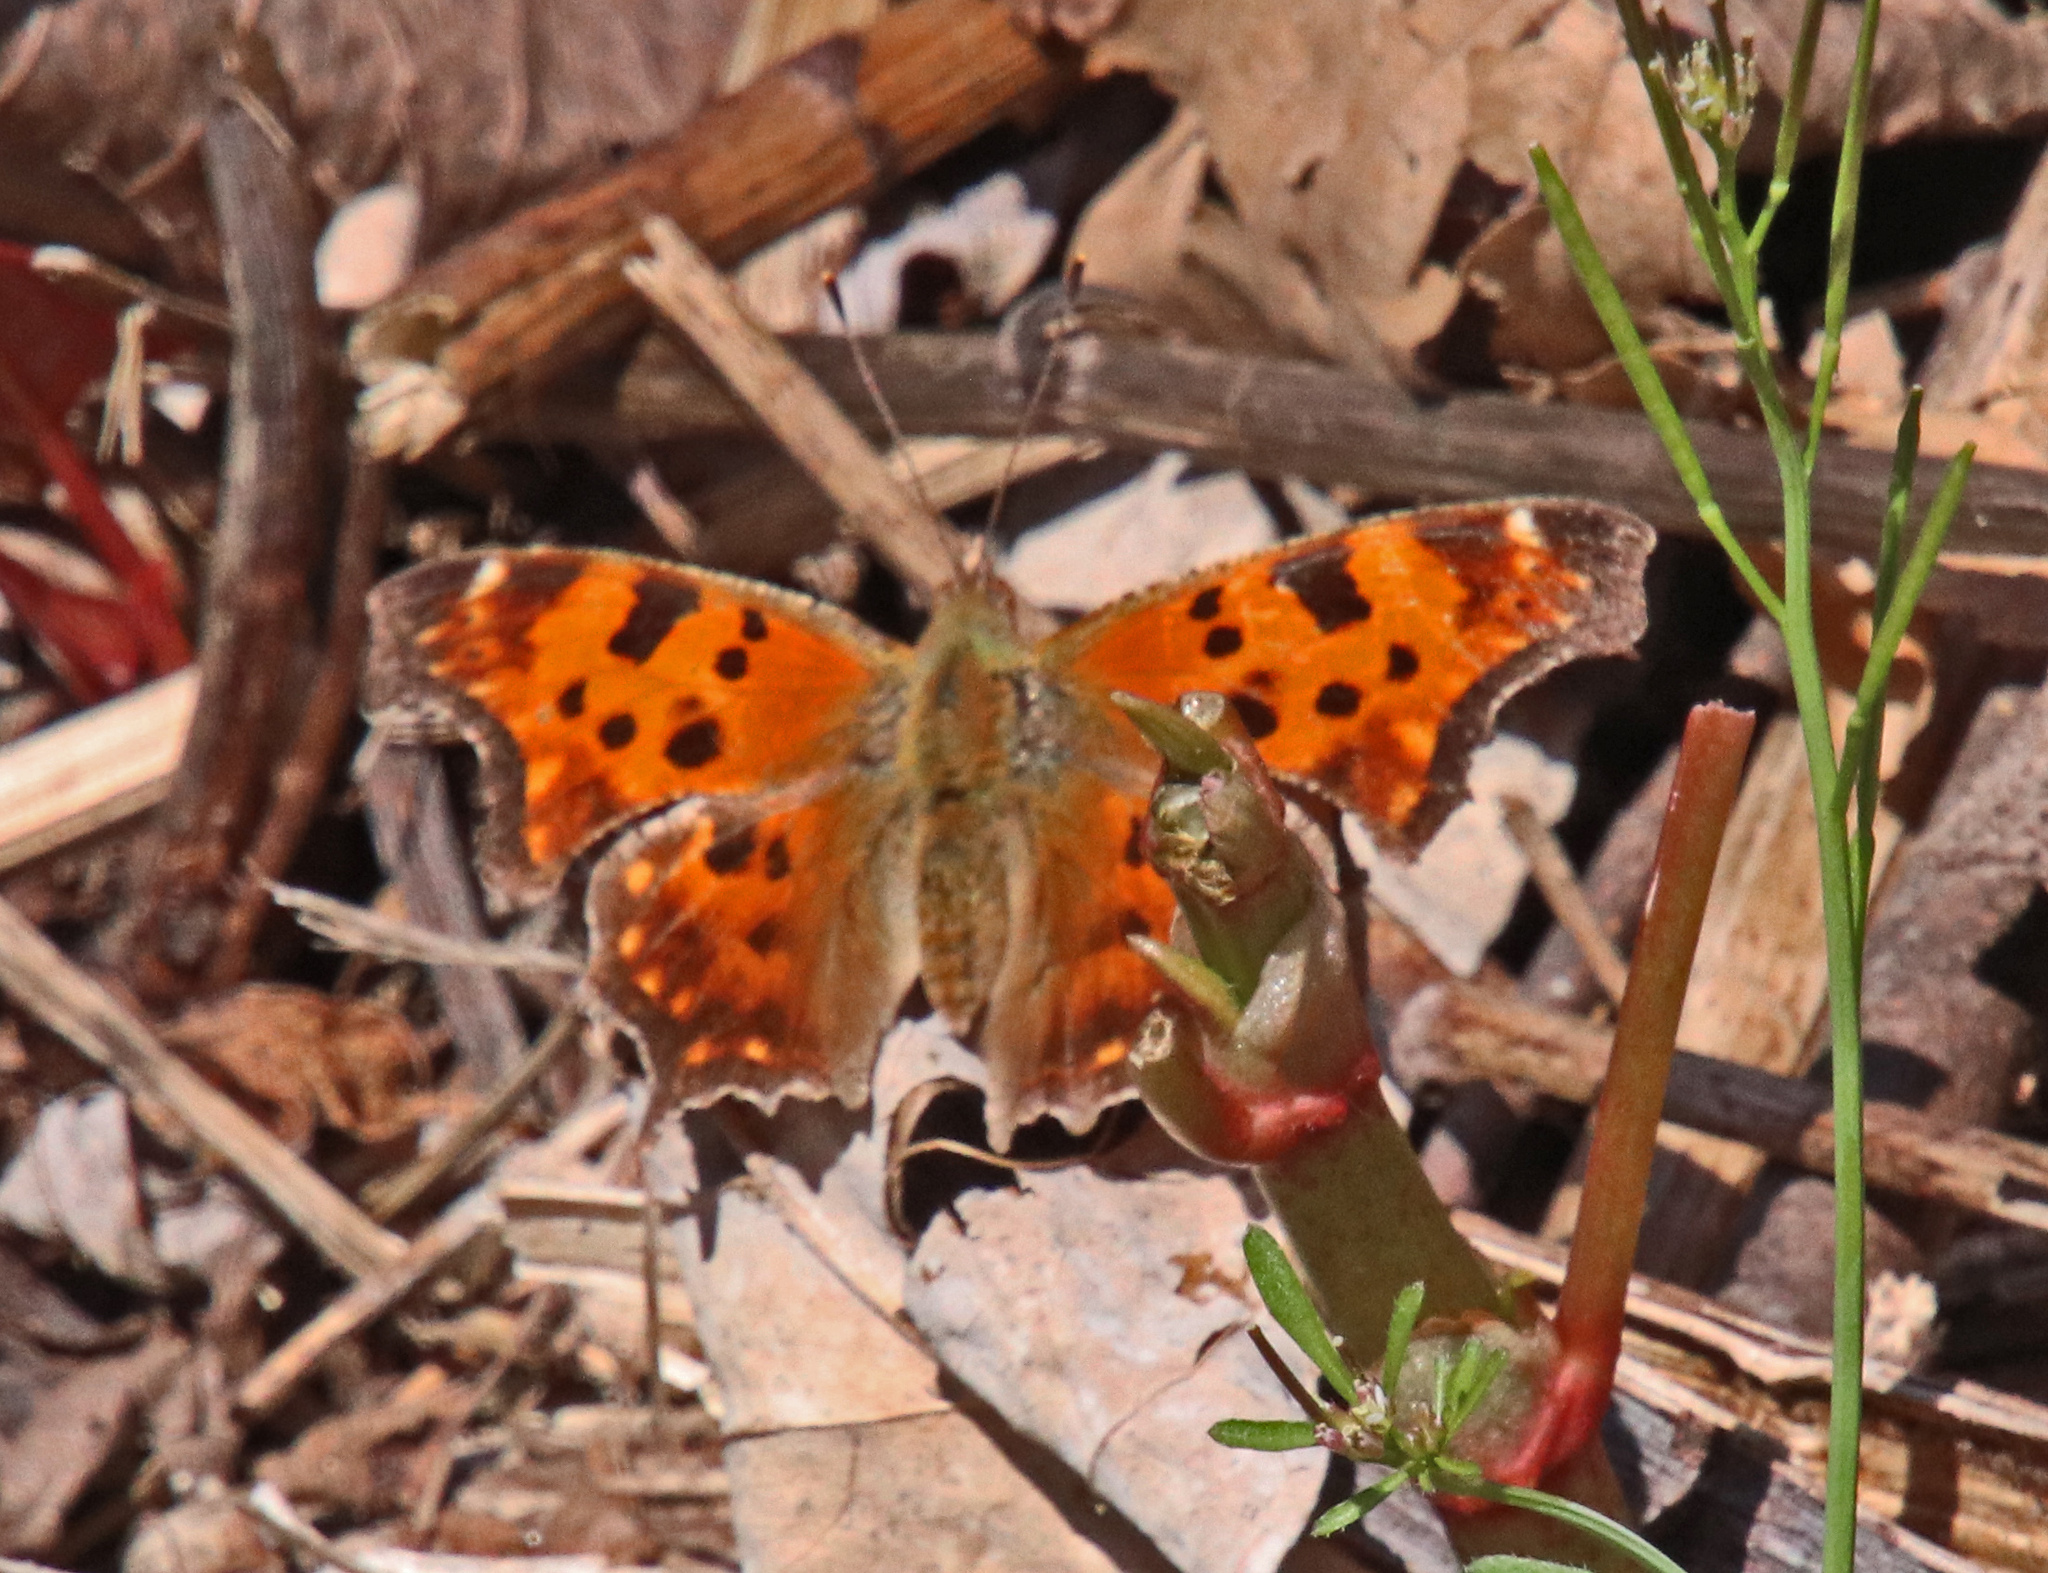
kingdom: Animalia
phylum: Arthropoda
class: Insecta
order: Lepidoptera
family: Nymphalidae
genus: Polygonia
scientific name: Polygonia comma
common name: Eastern comma
